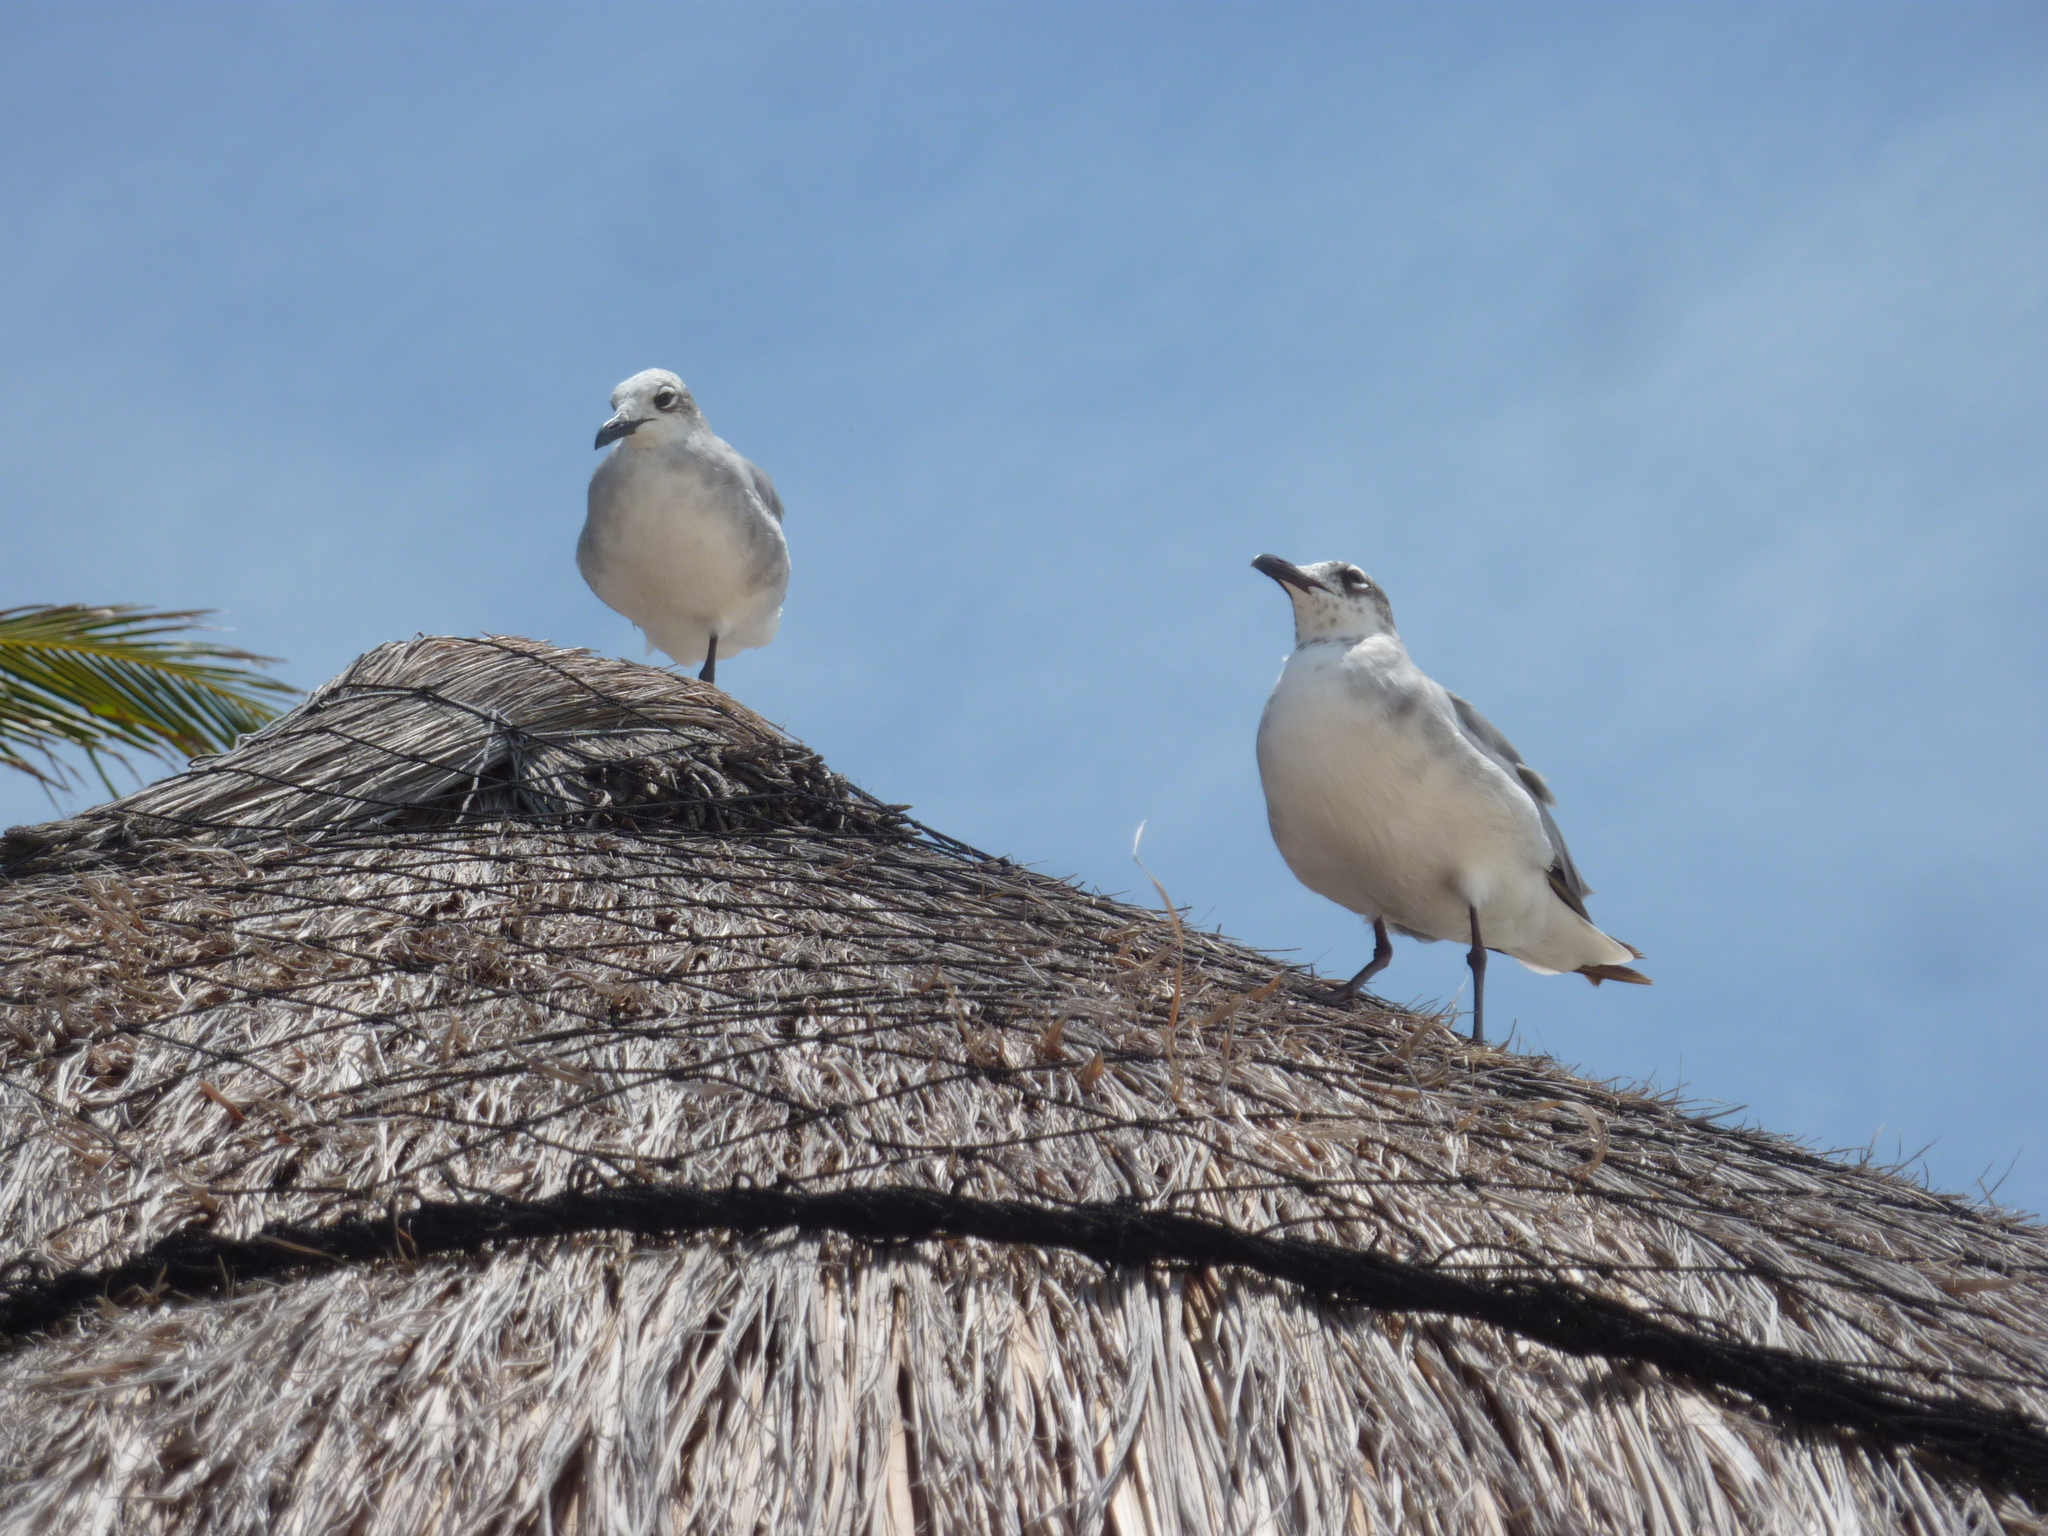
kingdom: Animalia
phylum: Chordata
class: Aves
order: Charadriiformes
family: Laridae
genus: Leucophaeus
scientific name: Leucophaeus atricilla
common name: Laughing gull
